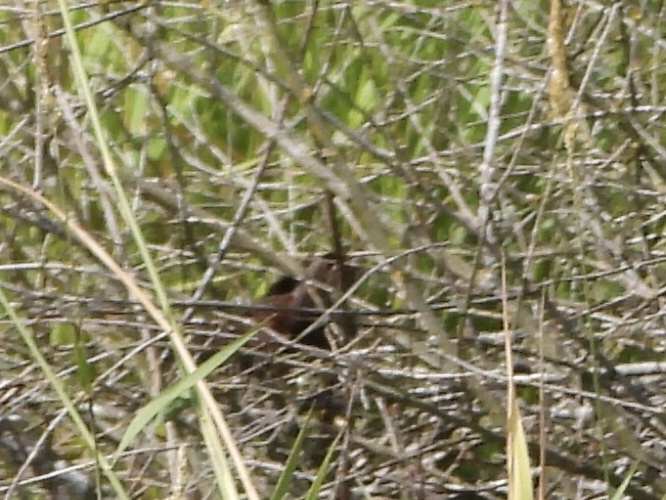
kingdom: Animalia
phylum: Chordata
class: Aves
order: Gruiformes
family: Rallidae
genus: Rallus
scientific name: Rallus limicola
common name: Virginia rail
